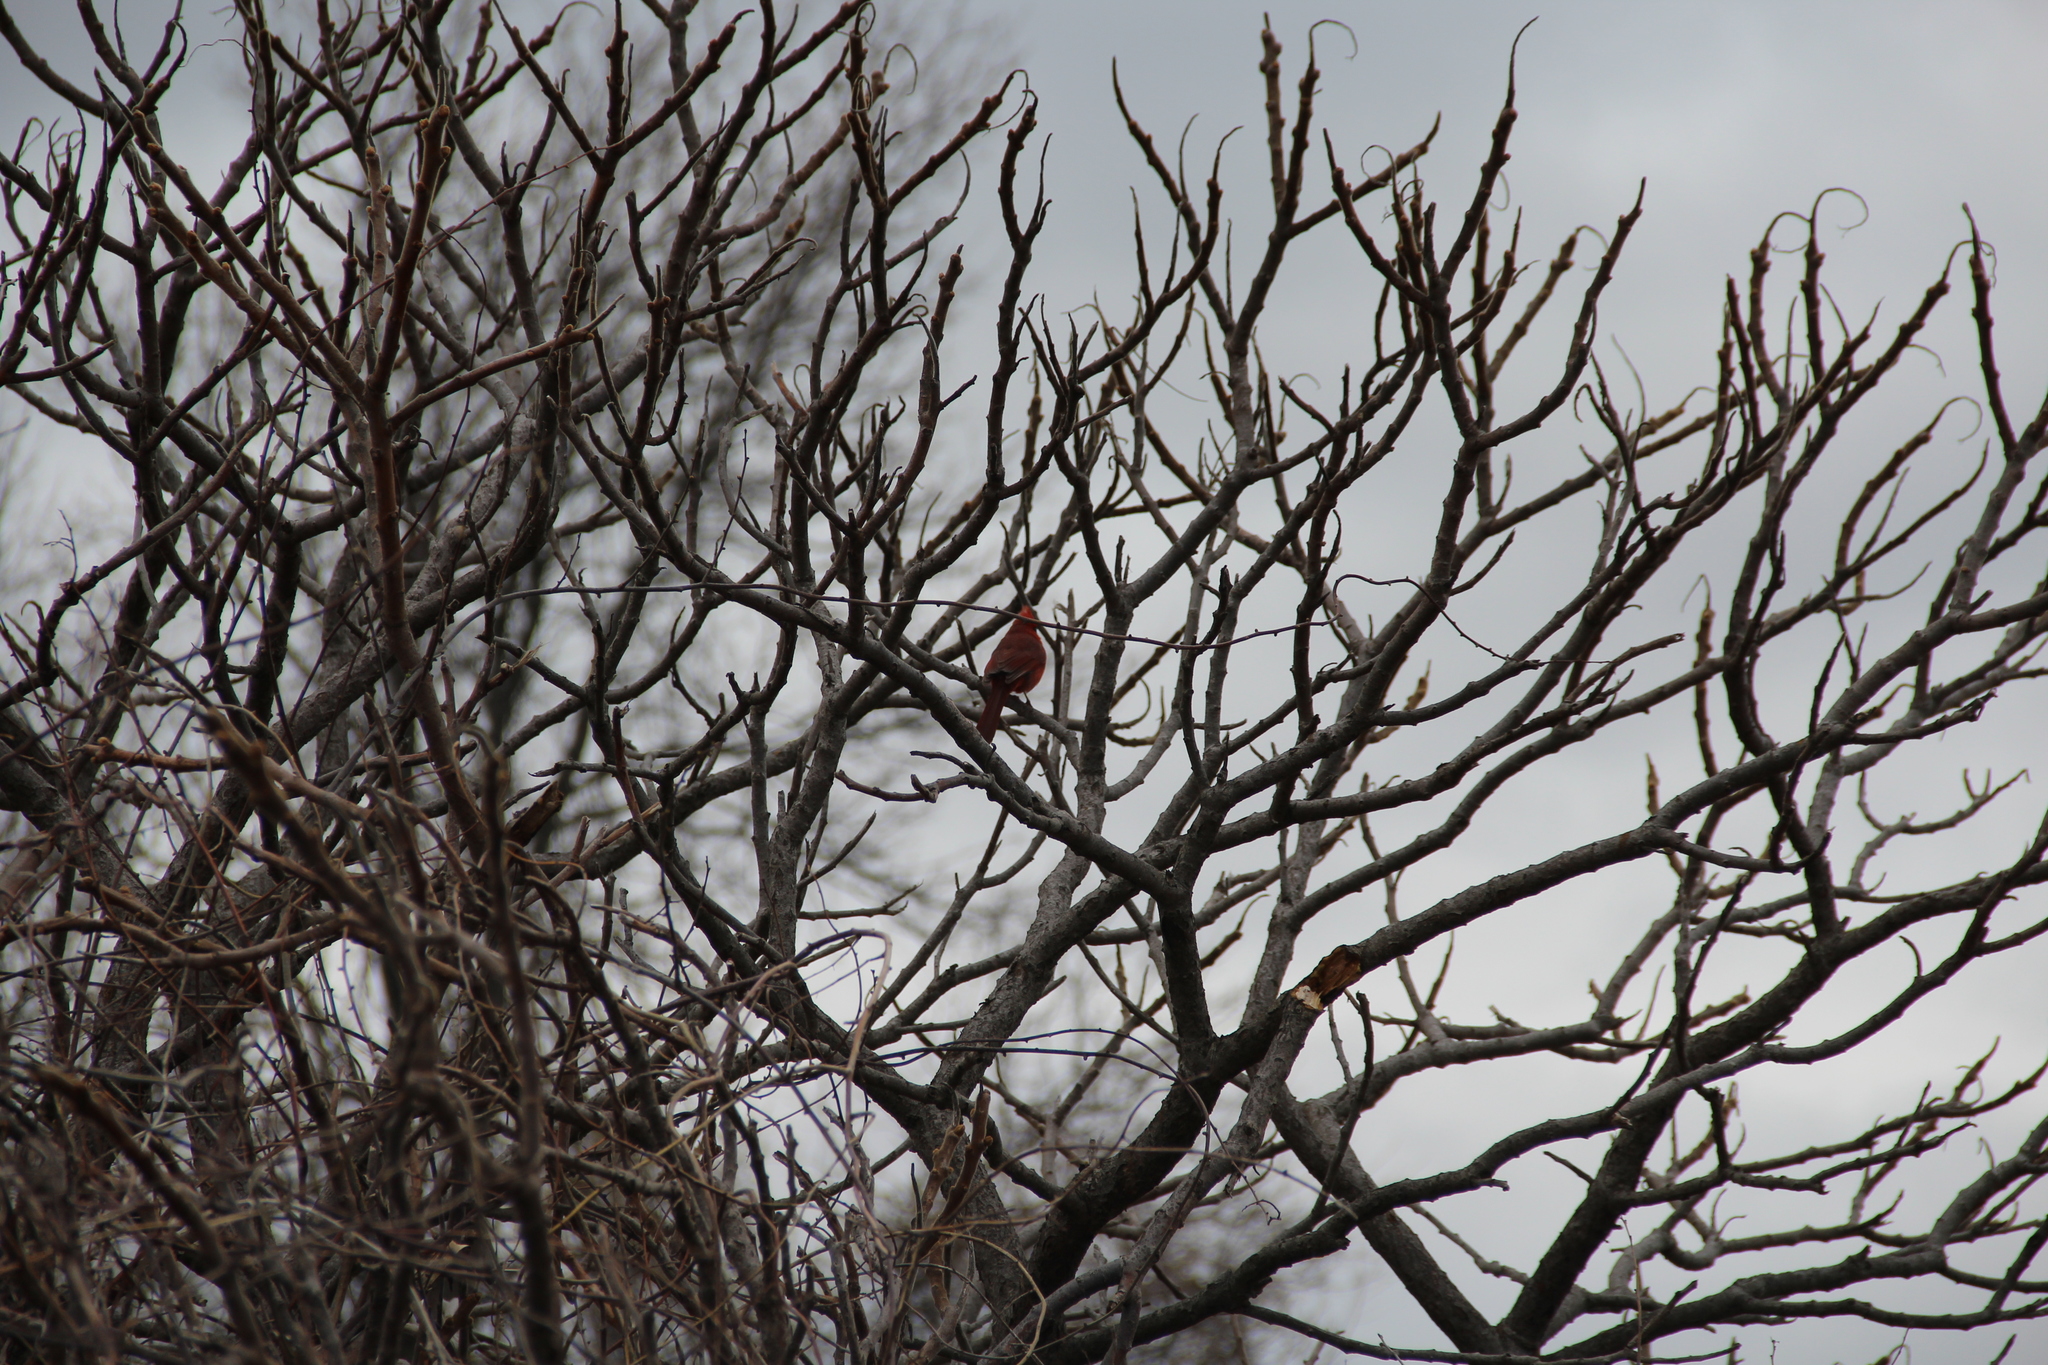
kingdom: Animalia
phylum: Chordata
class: Aves
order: Passeriformes
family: Cardinalidae
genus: Cardinalis
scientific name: Cardinalis cardinalis
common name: Northern cardinal
